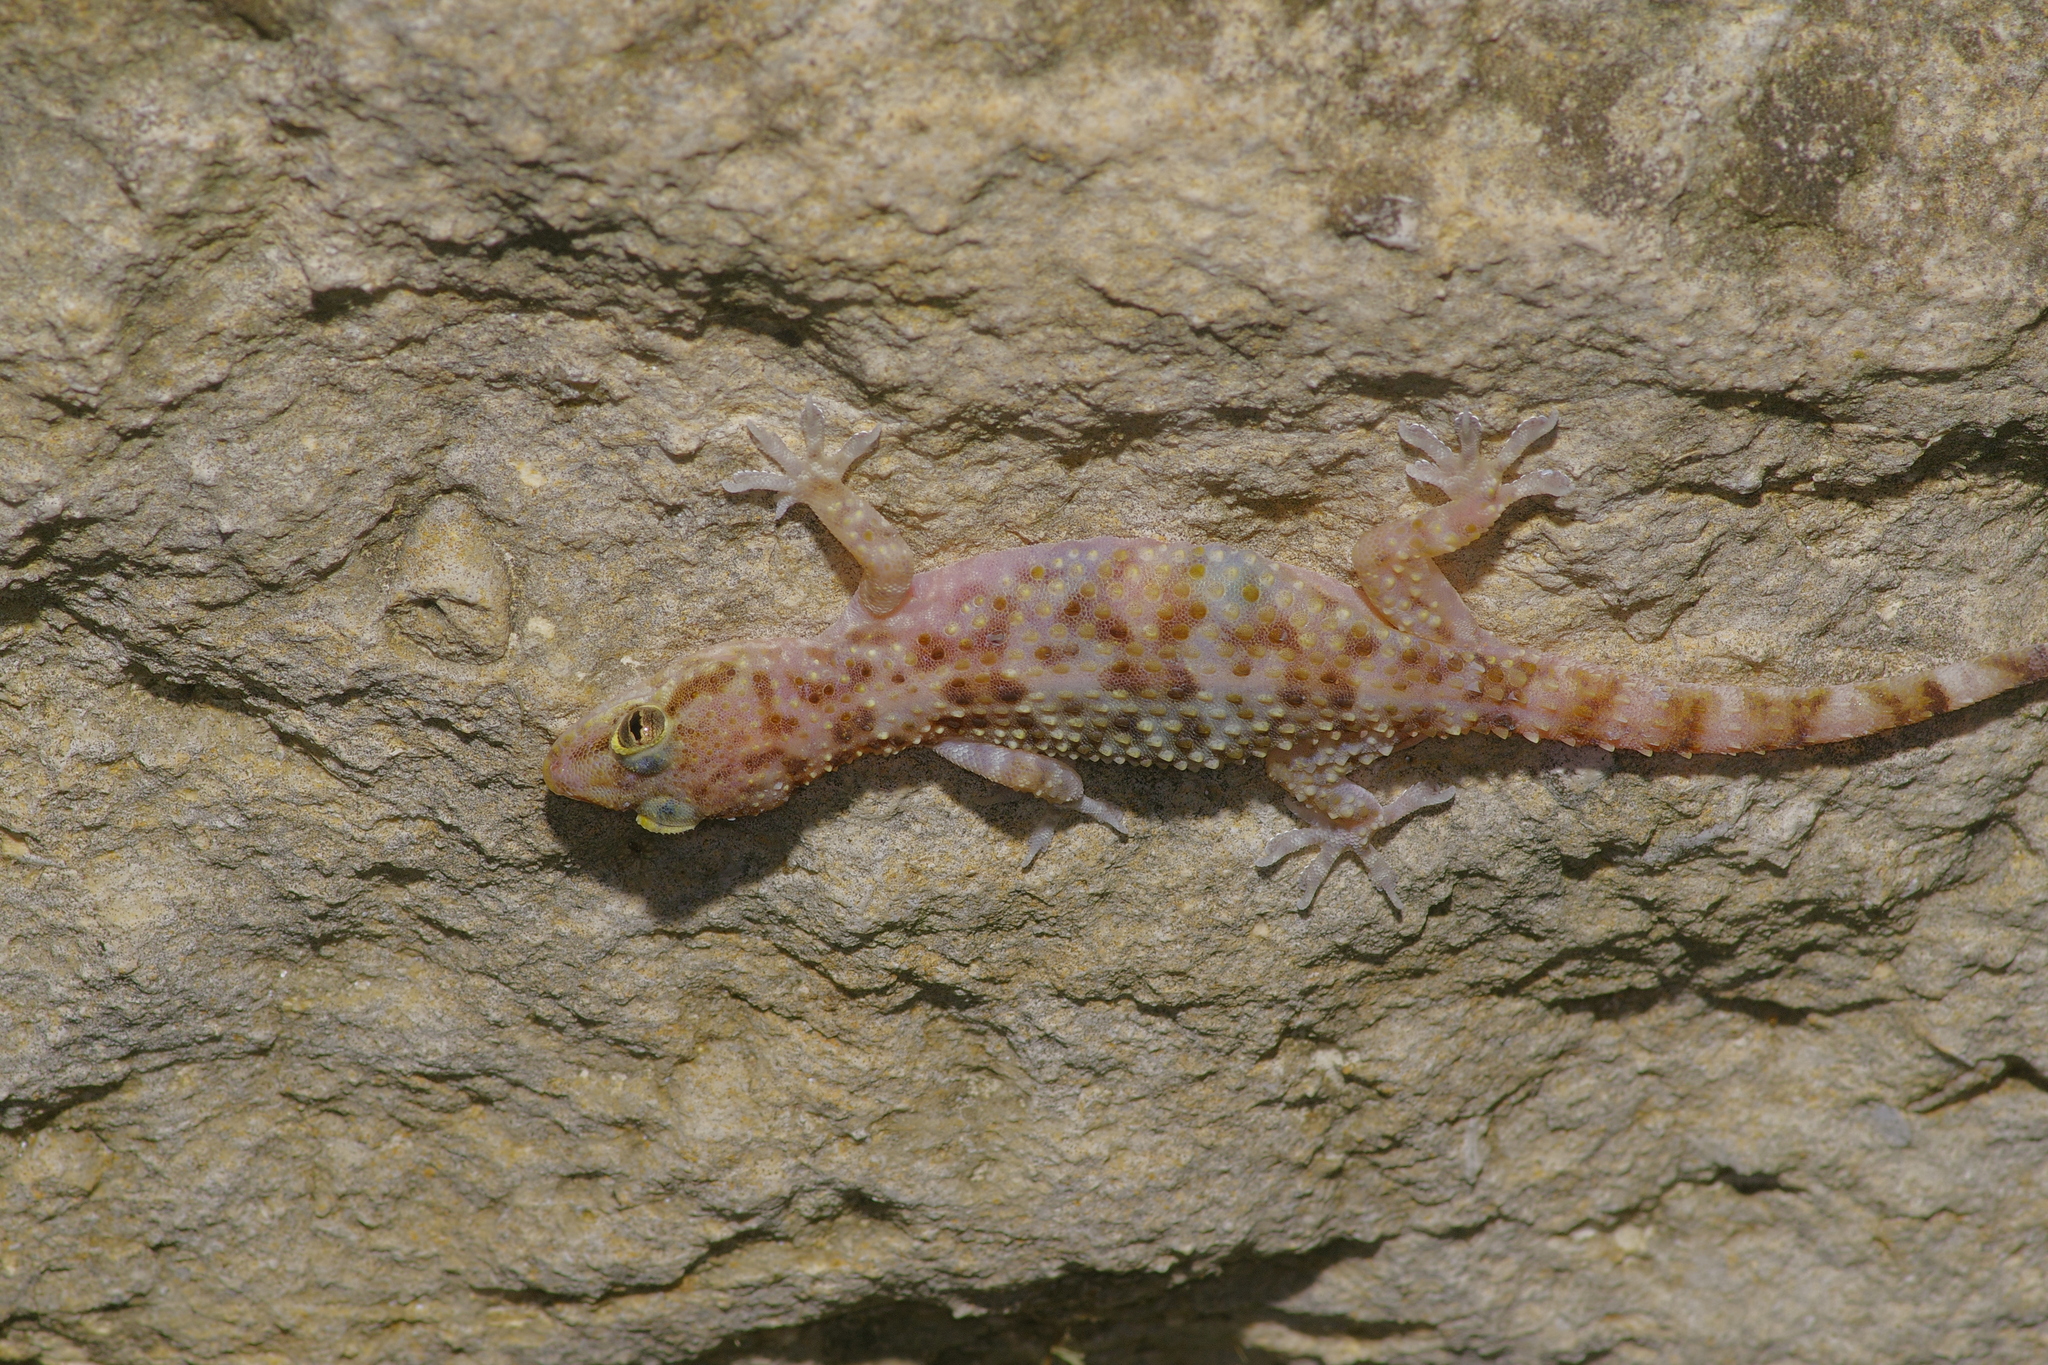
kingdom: Animalia
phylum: Chordata
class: Squamata
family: Gekkonidae
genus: Hemidactylus
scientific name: Hemidactylus turcicus
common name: Turkish gecko
